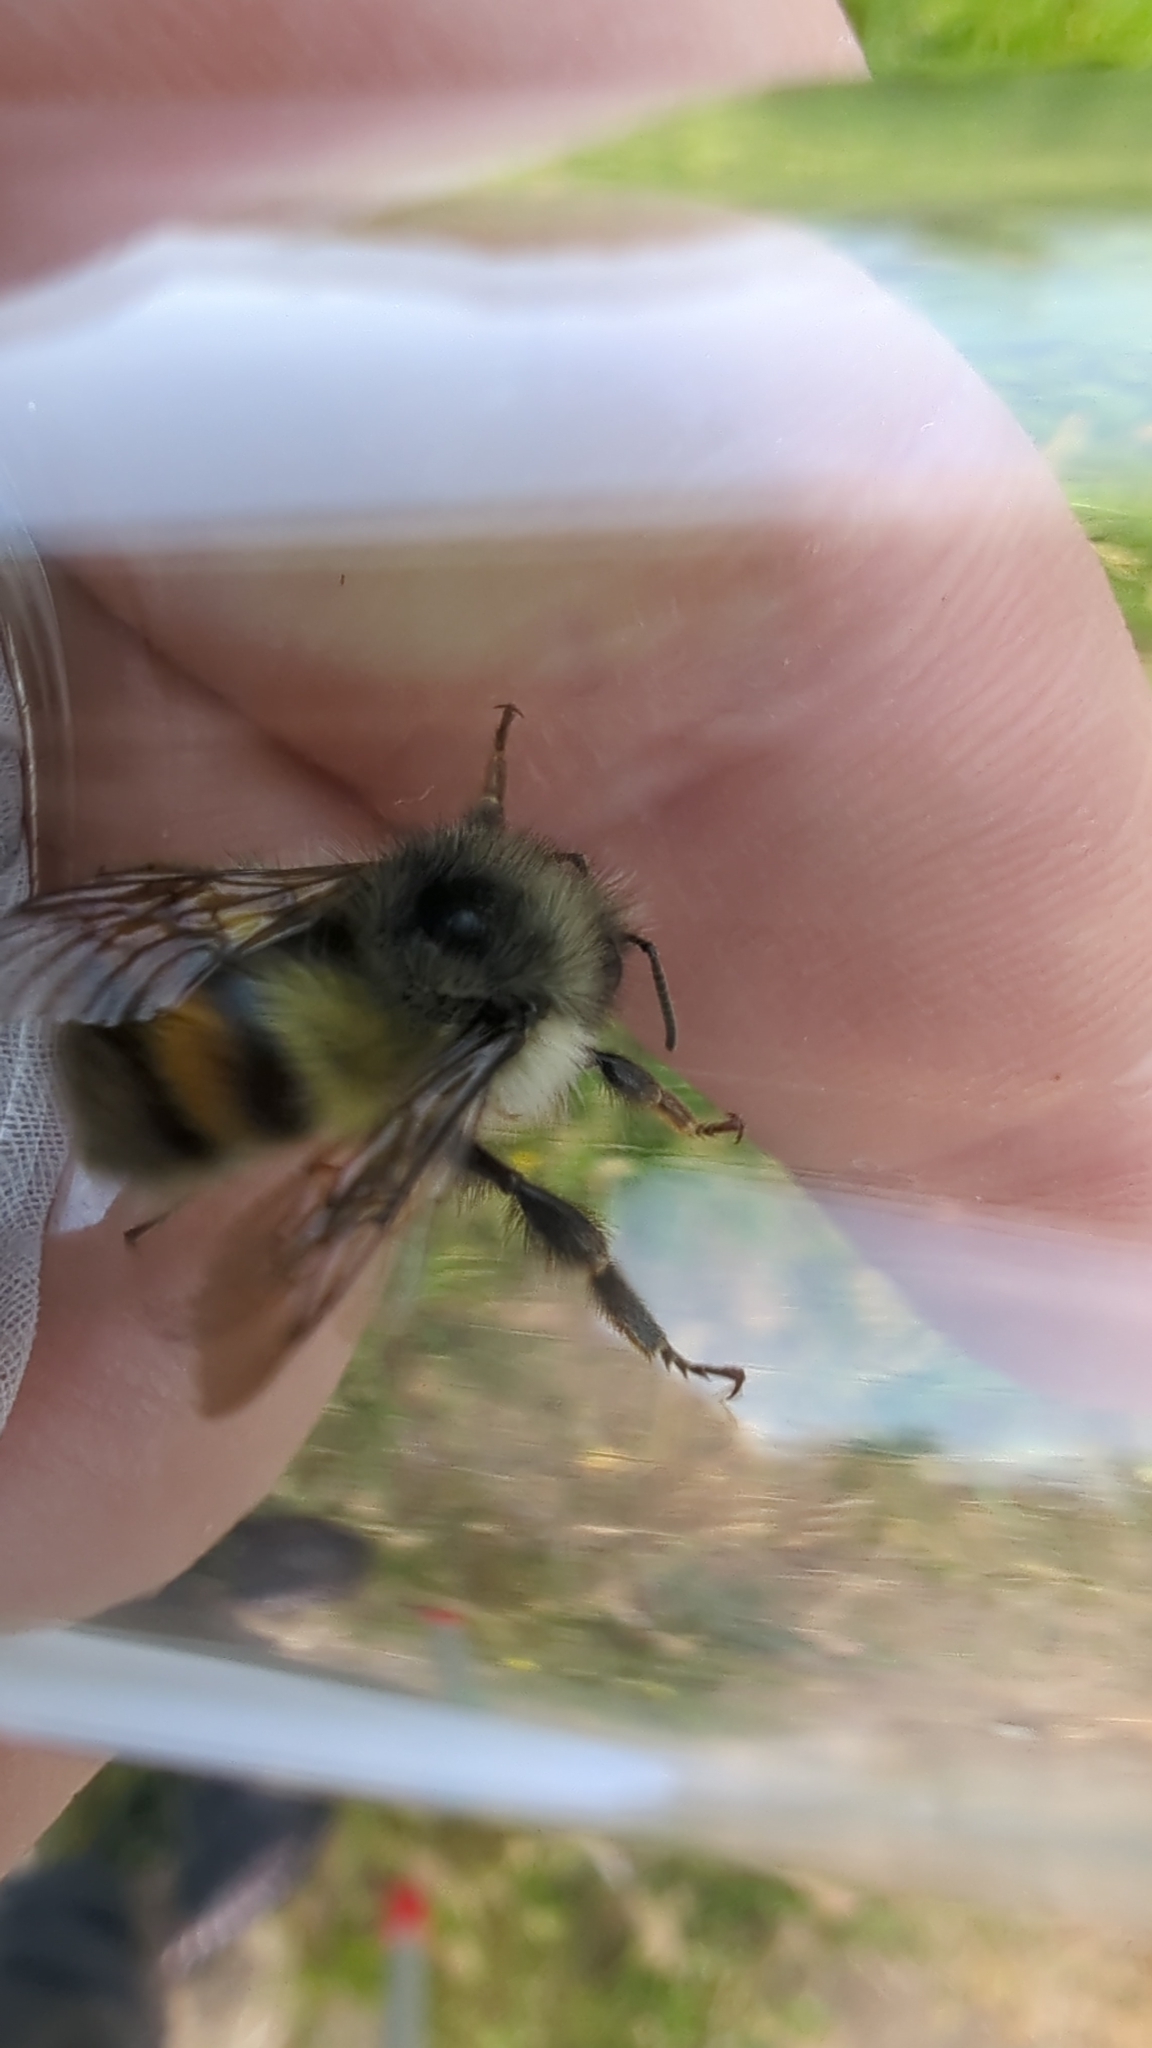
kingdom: Animalia
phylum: Arthropoda
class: Insecta
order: Hymenoptera
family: Apidae
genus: Bombus
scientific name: Bombus flavifrons
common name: Yellow head bumble bee
